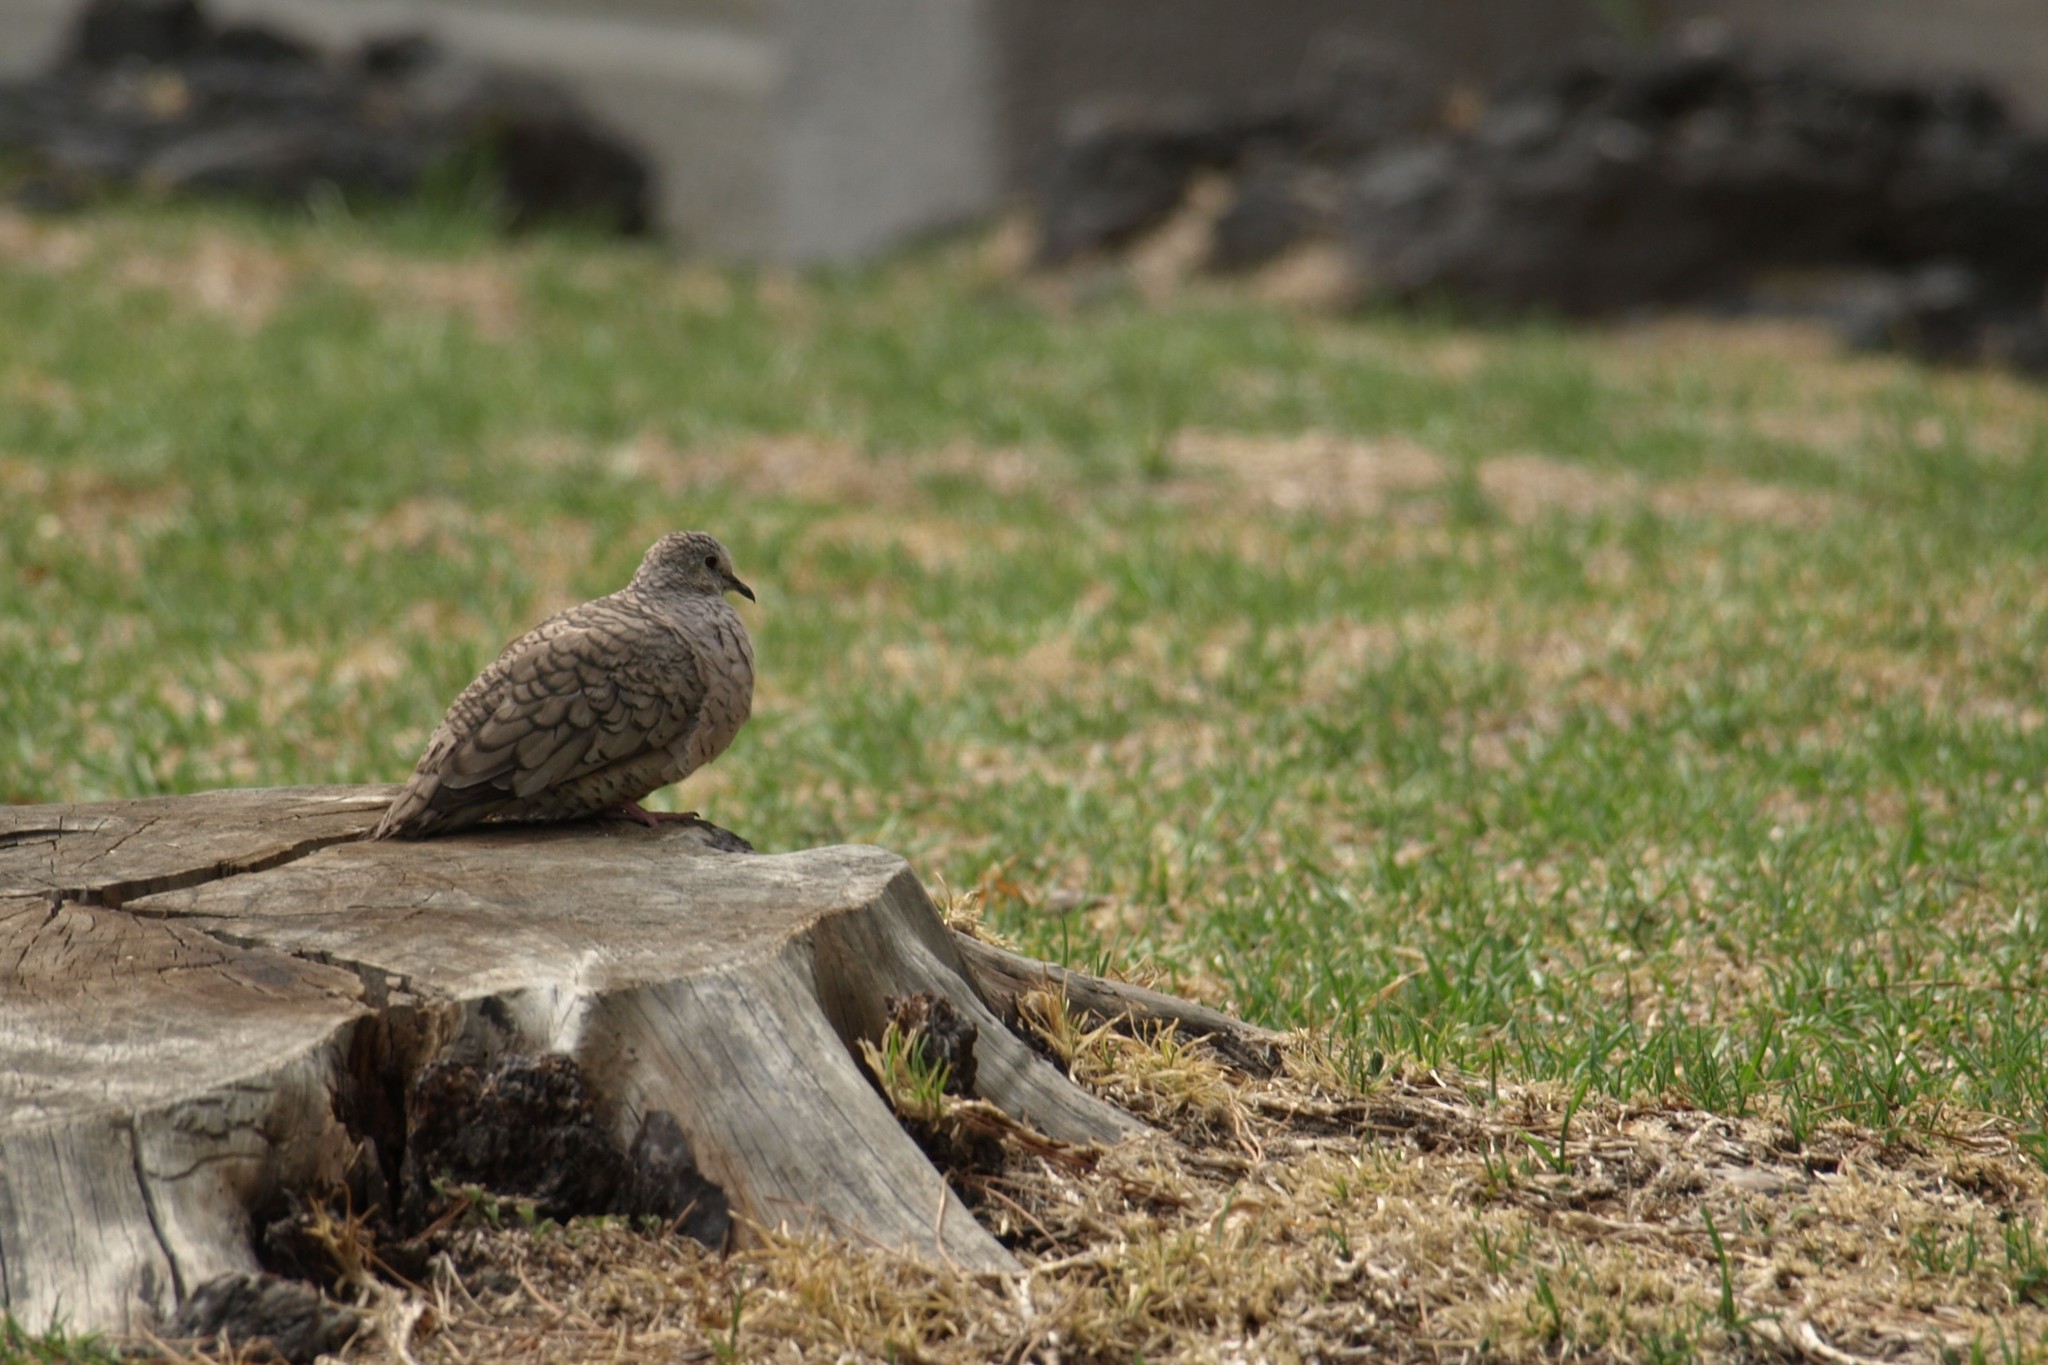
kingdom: Animalia
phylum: Chordata
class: Aves
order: Columbiformes
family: Columbidae
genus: Columbina
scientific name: Columbina inca
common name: Inca dove
